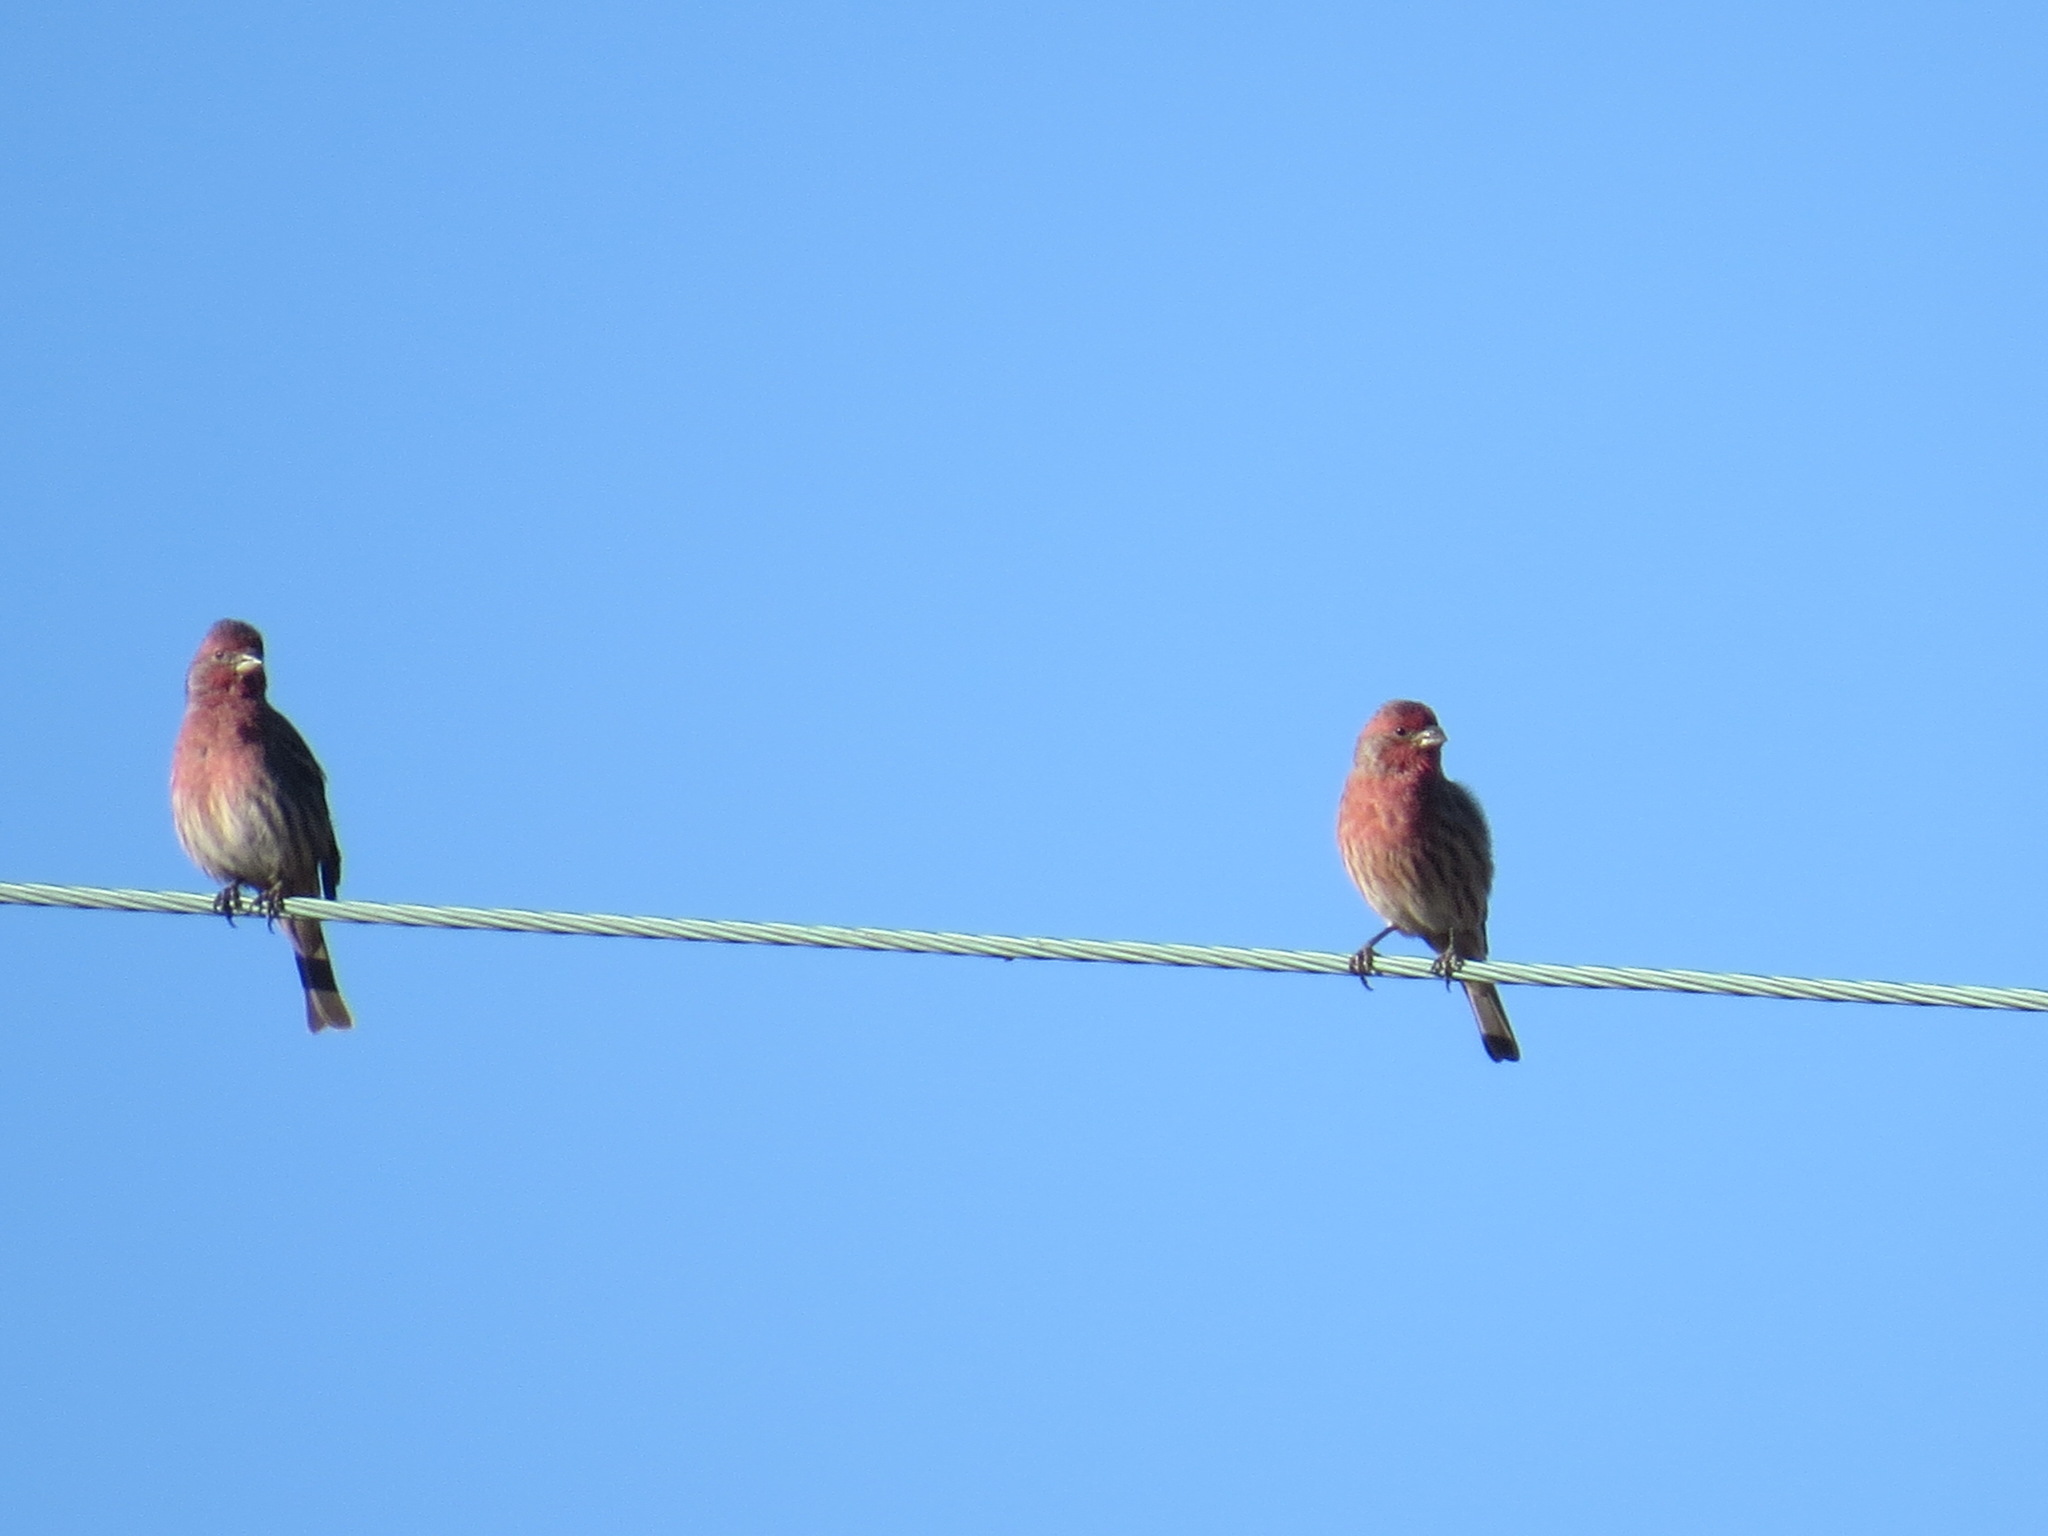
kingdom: Animalia
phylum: Chordata
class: Aves
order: Passeriformes
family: Fringillidae
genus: Haemorhous
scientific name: Haemorhous mexicanus
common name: House finch
